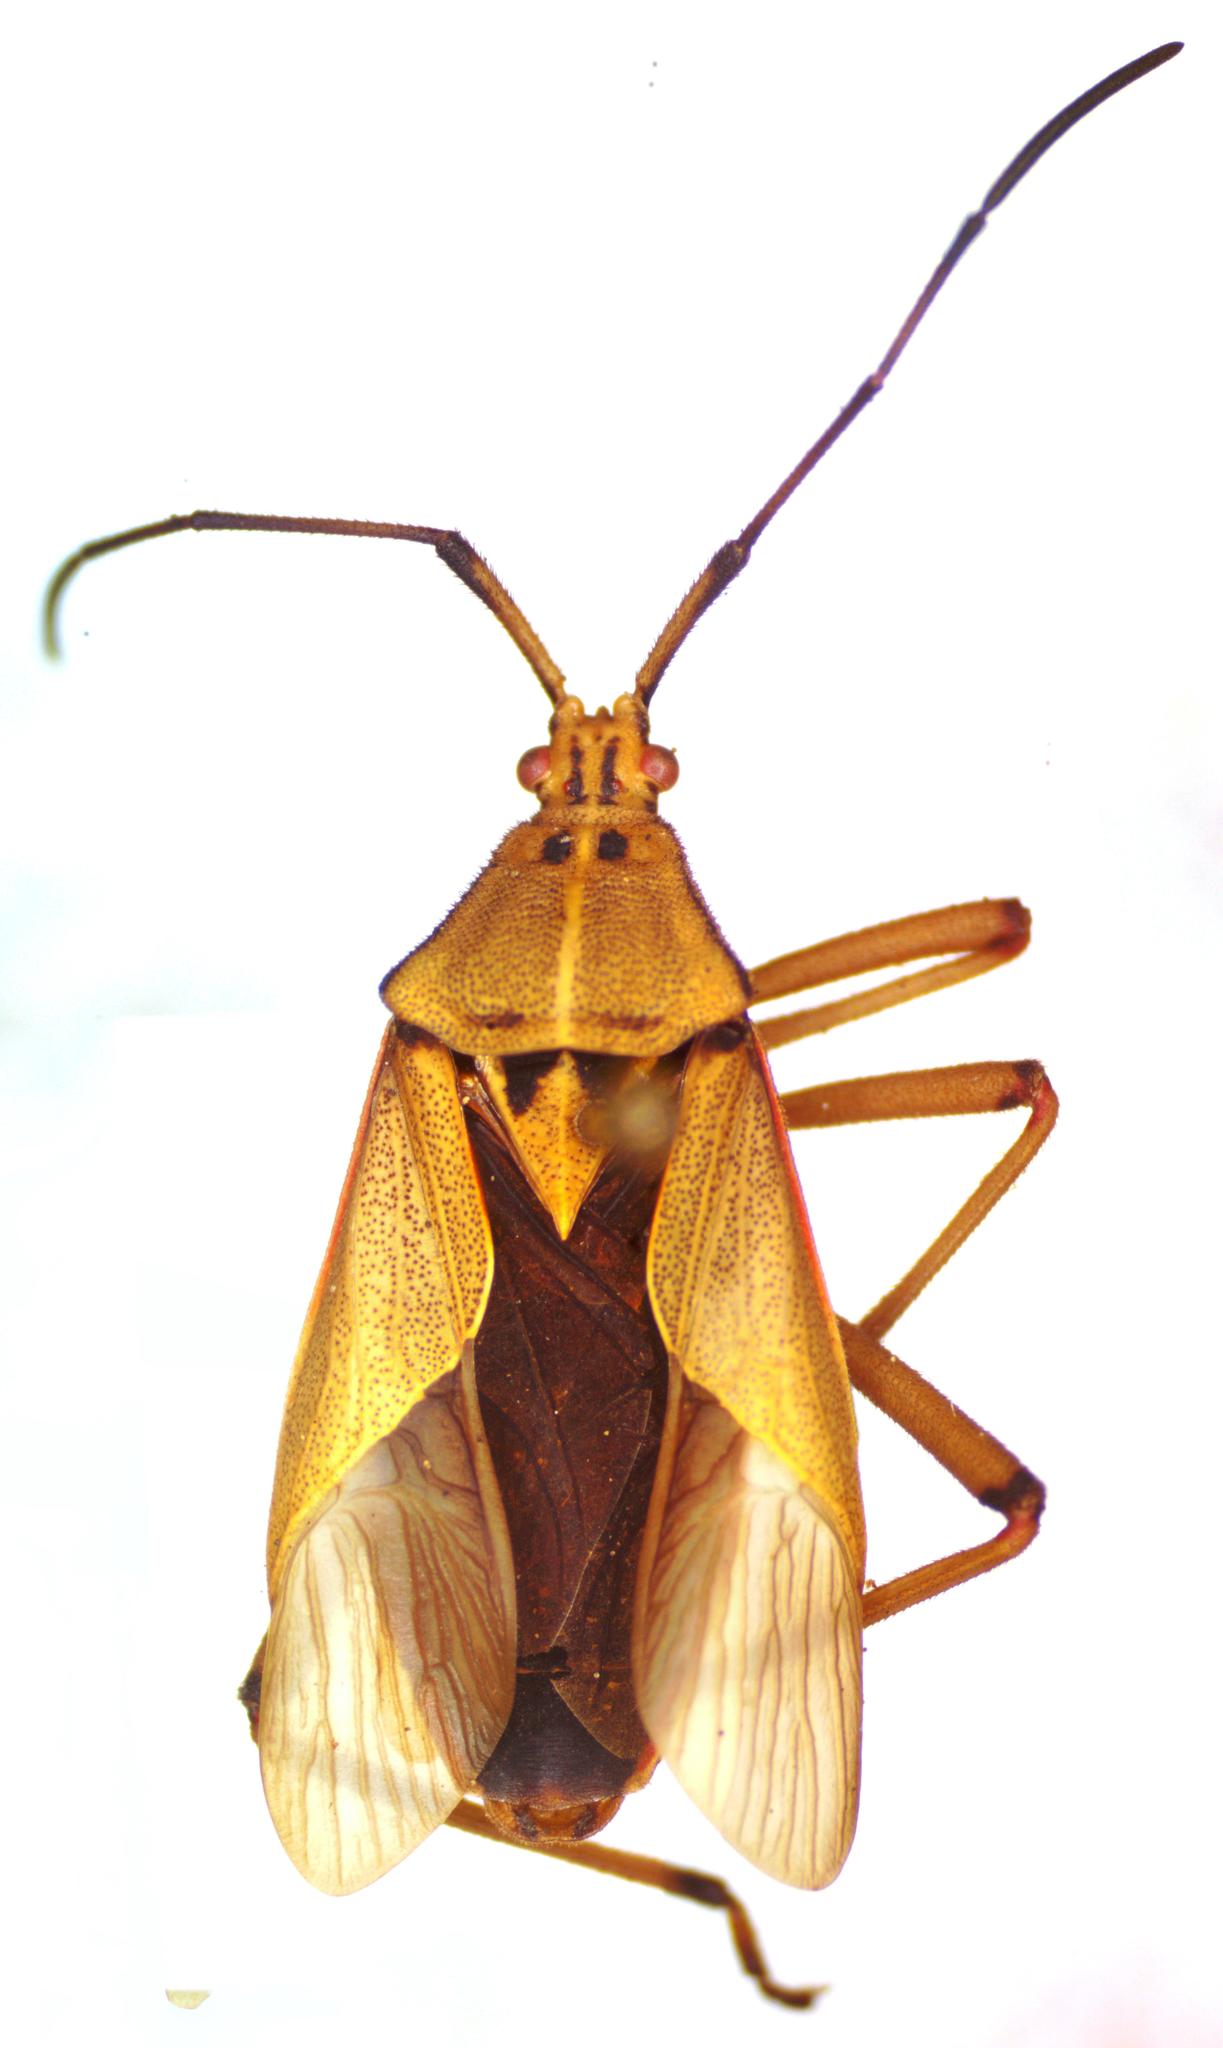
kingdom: Animalia
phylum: Arthropoda
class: Insecta
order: Hemiptera
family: Coreidae
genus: Nyttum
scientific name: Nyttum punctatum
